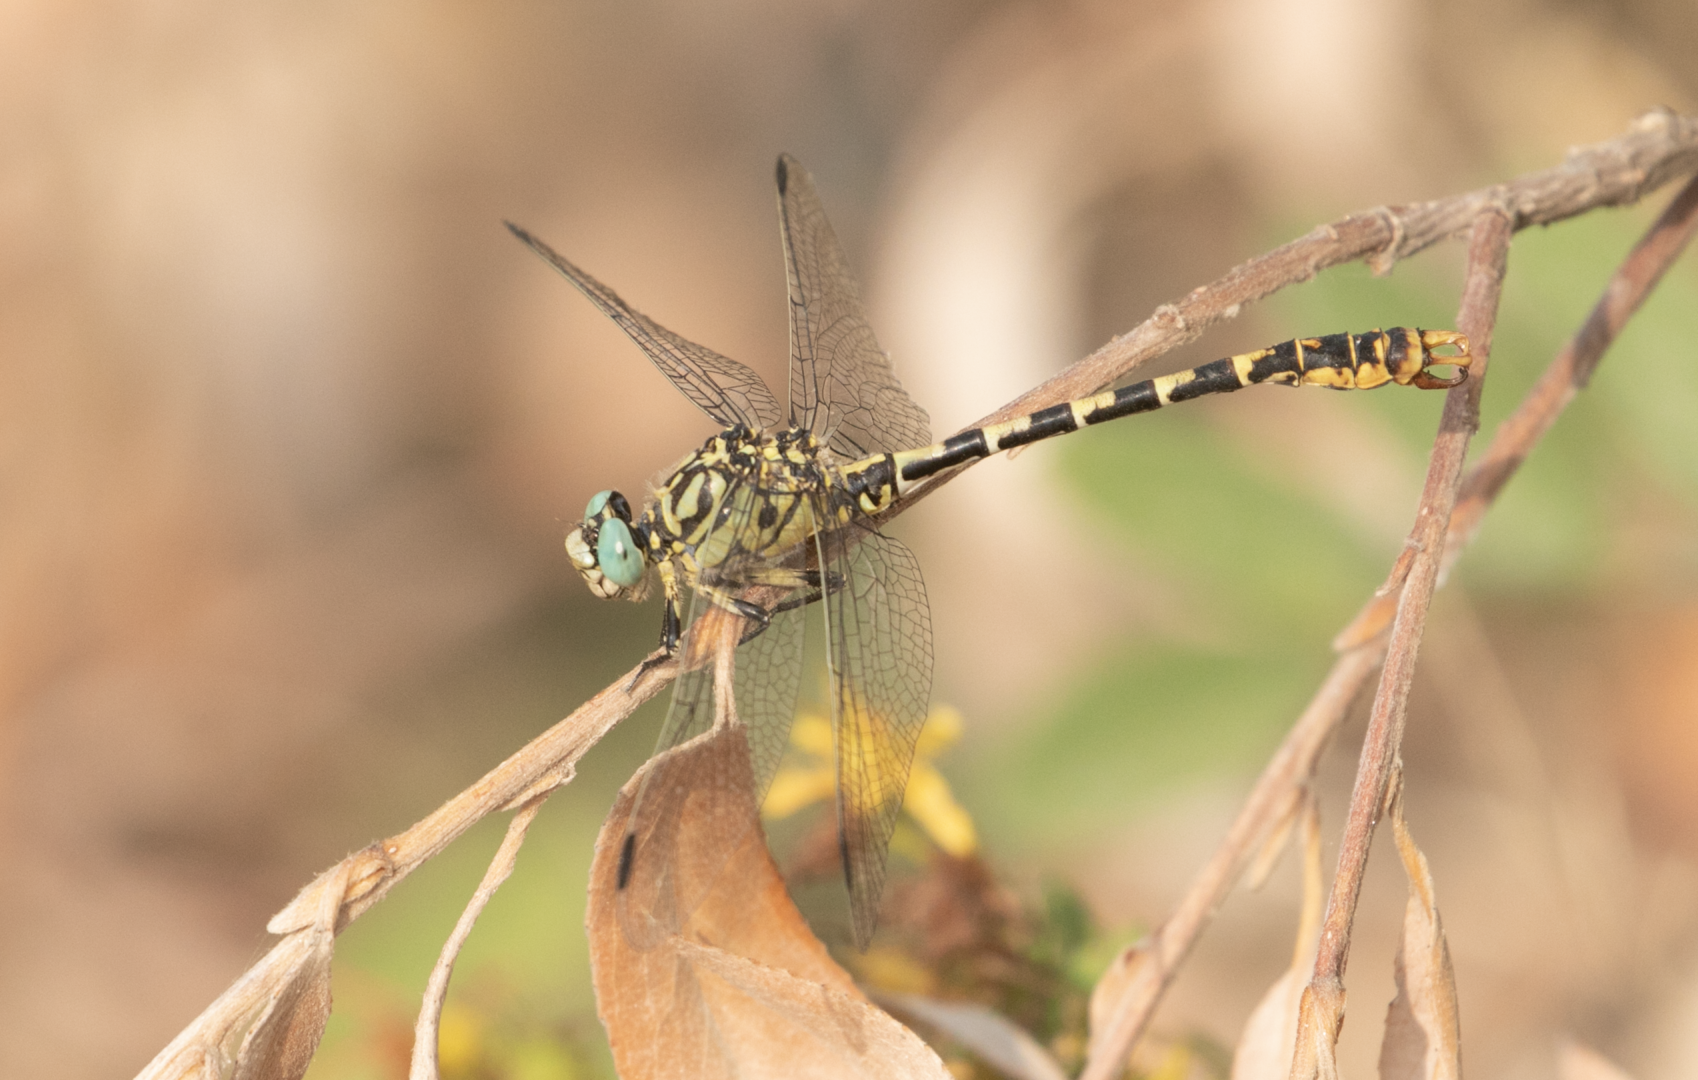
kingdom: Animalia
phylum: Arthropoda
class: Insecta
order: Odonata
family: Gomphidae
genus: Onychogomphus
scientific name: Onychogomphus forcipatus
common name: Small pincertail
